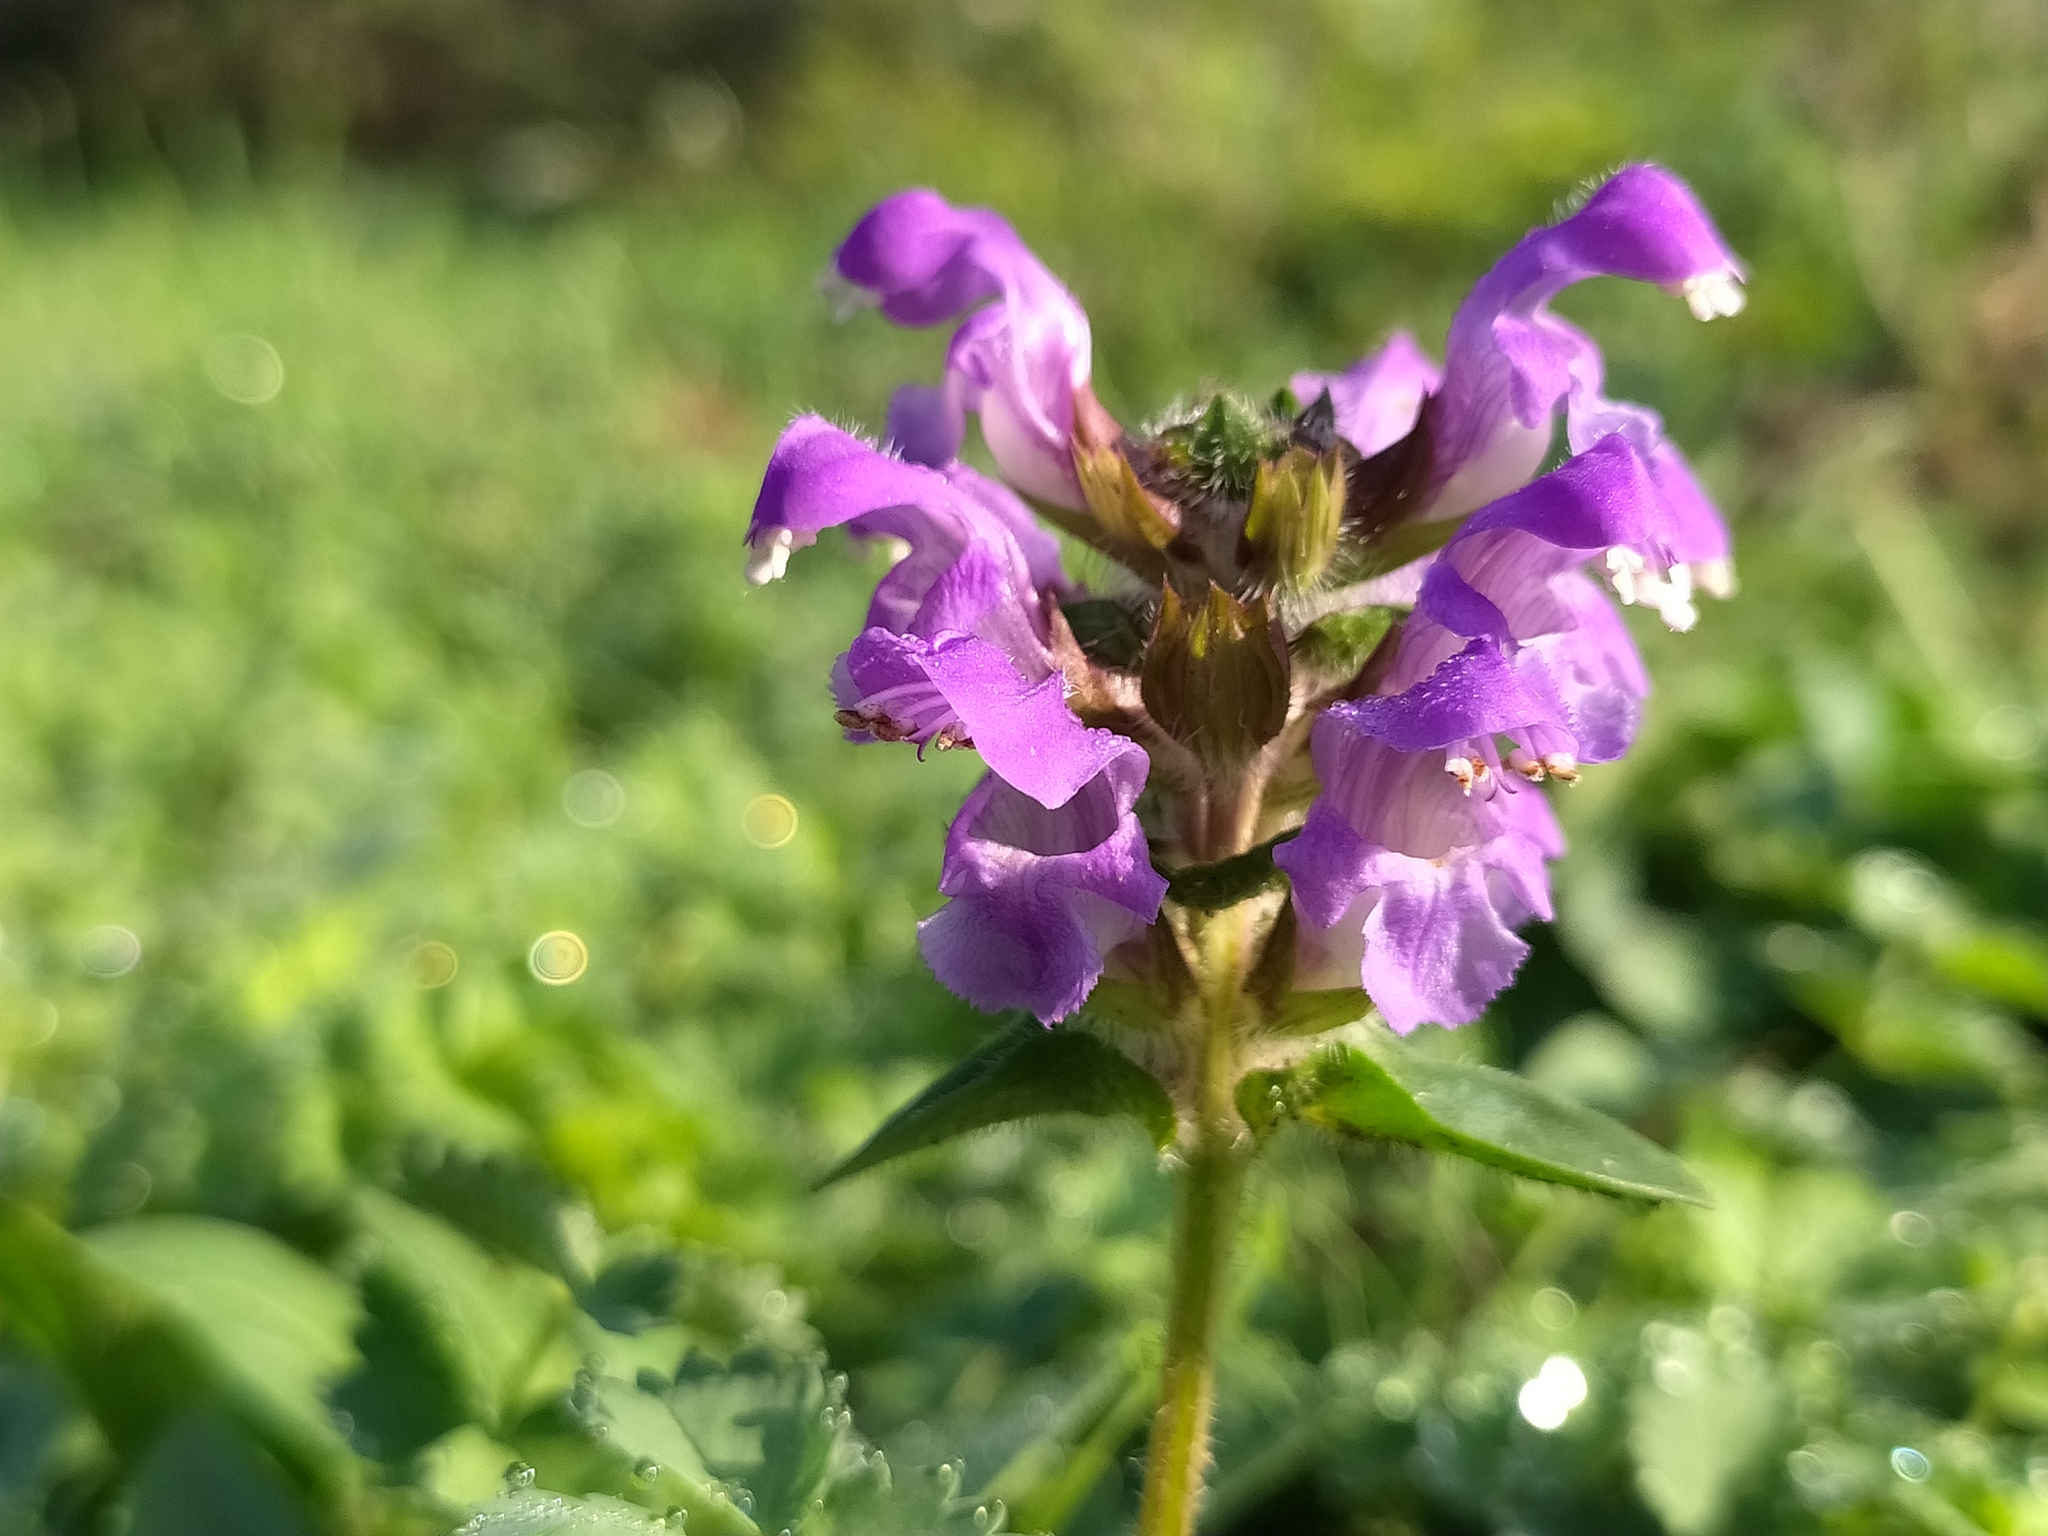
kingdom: Plantae
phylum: Tracheophyta
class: Magnoliopsida
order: Lamiales
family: Lamiaceae
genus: Prunella
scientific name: Prunella grandiflora
